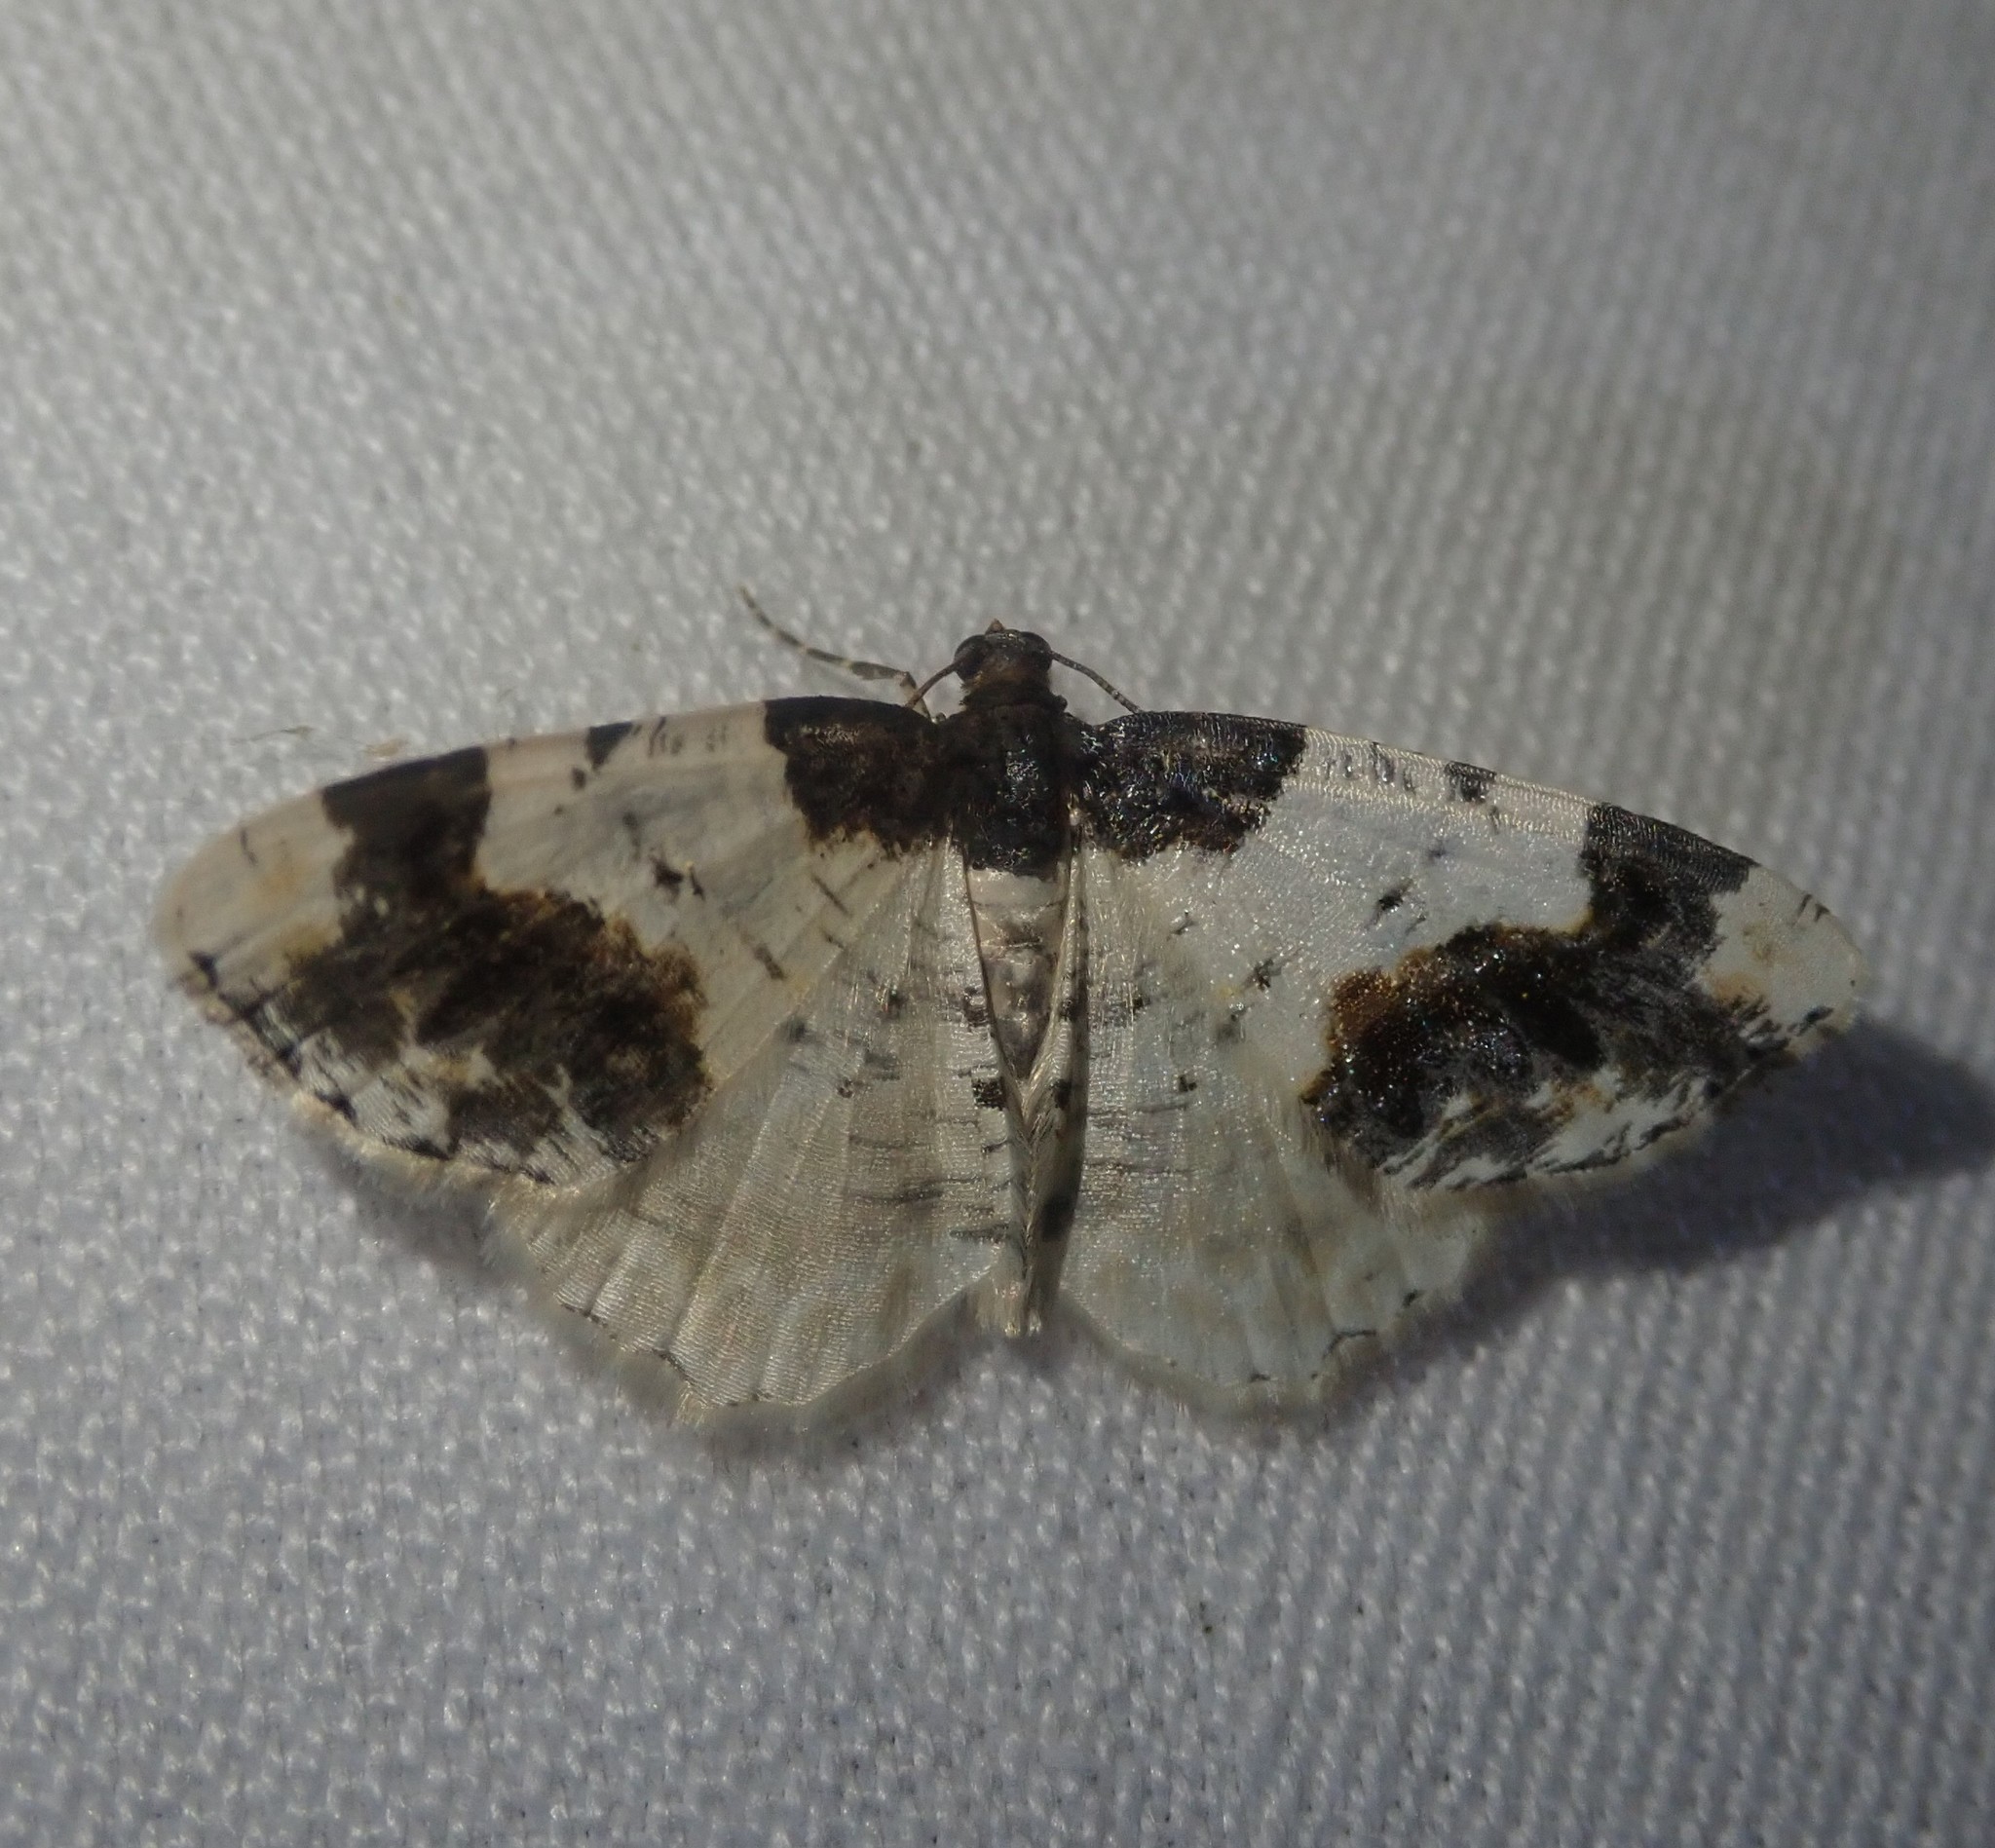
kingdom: Animalia
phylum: Arthropoda
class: Insecta
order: Lepidoptera
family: Geometridae
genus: Ligdia
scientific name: Ligdia adustata
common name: Scorched carpet
